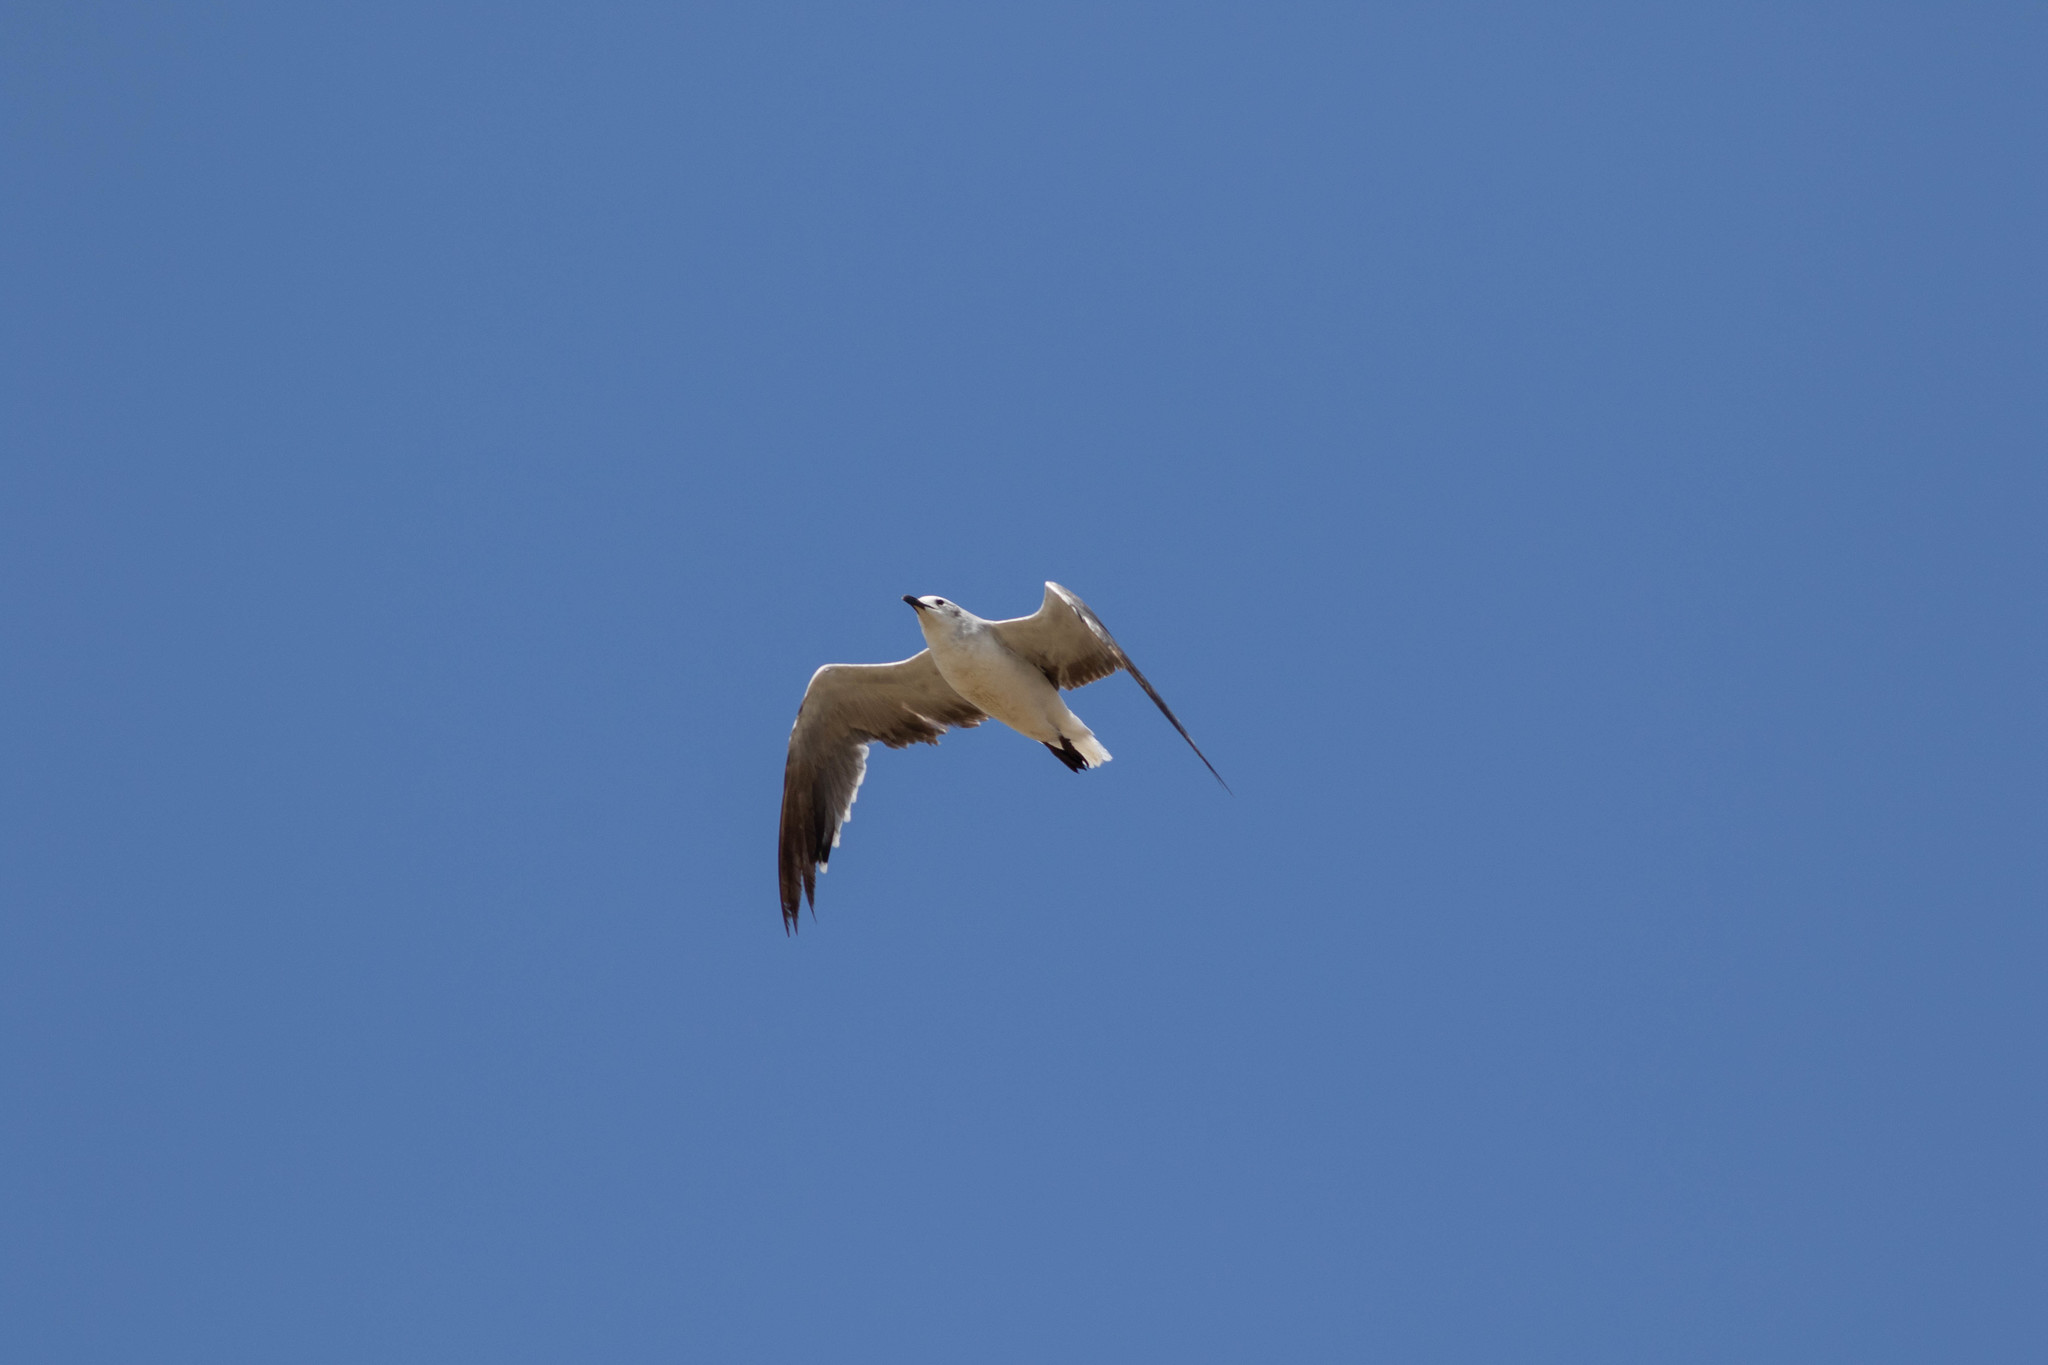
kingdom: Animalia
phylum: Chordata
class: Aves
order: Charadriiformes
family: Laridae
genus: Leucophaeus
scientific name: Leucophaeus atricilla
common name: Laughing gull
